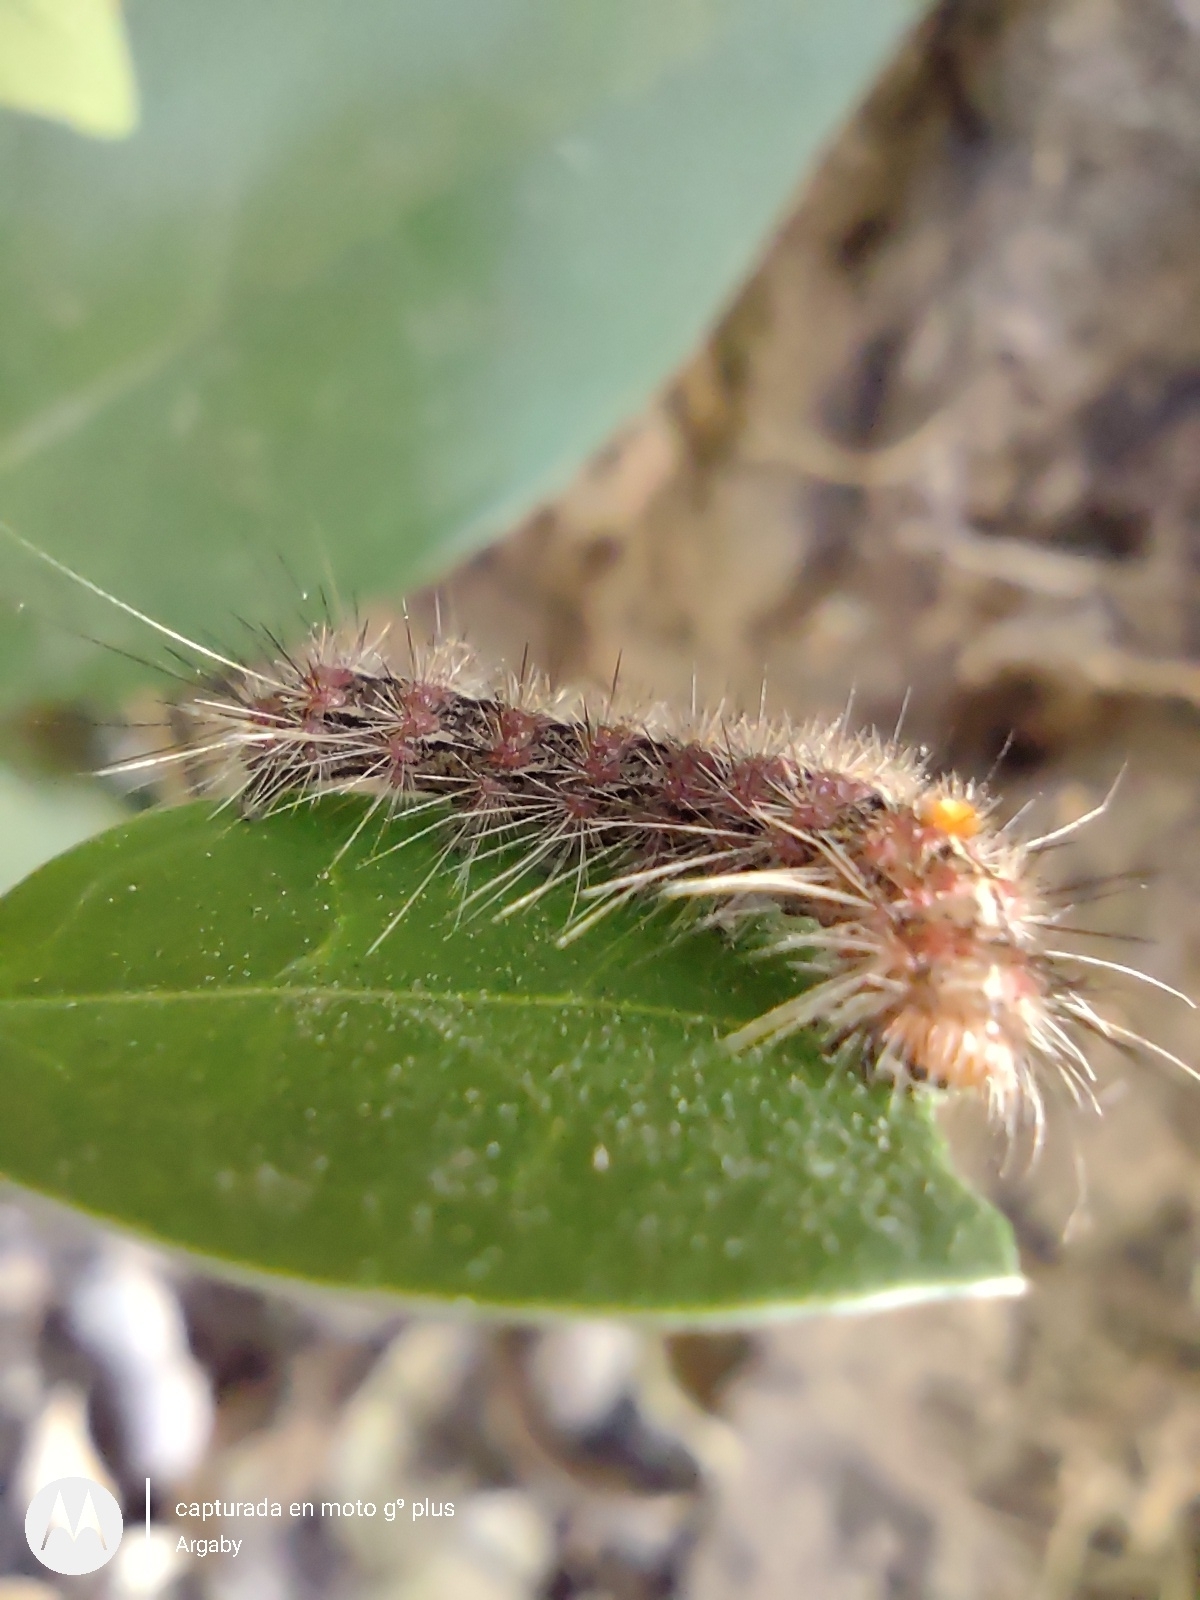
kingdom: Animalia
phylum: Arthropoda
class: Insecta
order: Lepidoptera
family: Erebidae
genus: Paracles
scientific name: Paracles fusca
